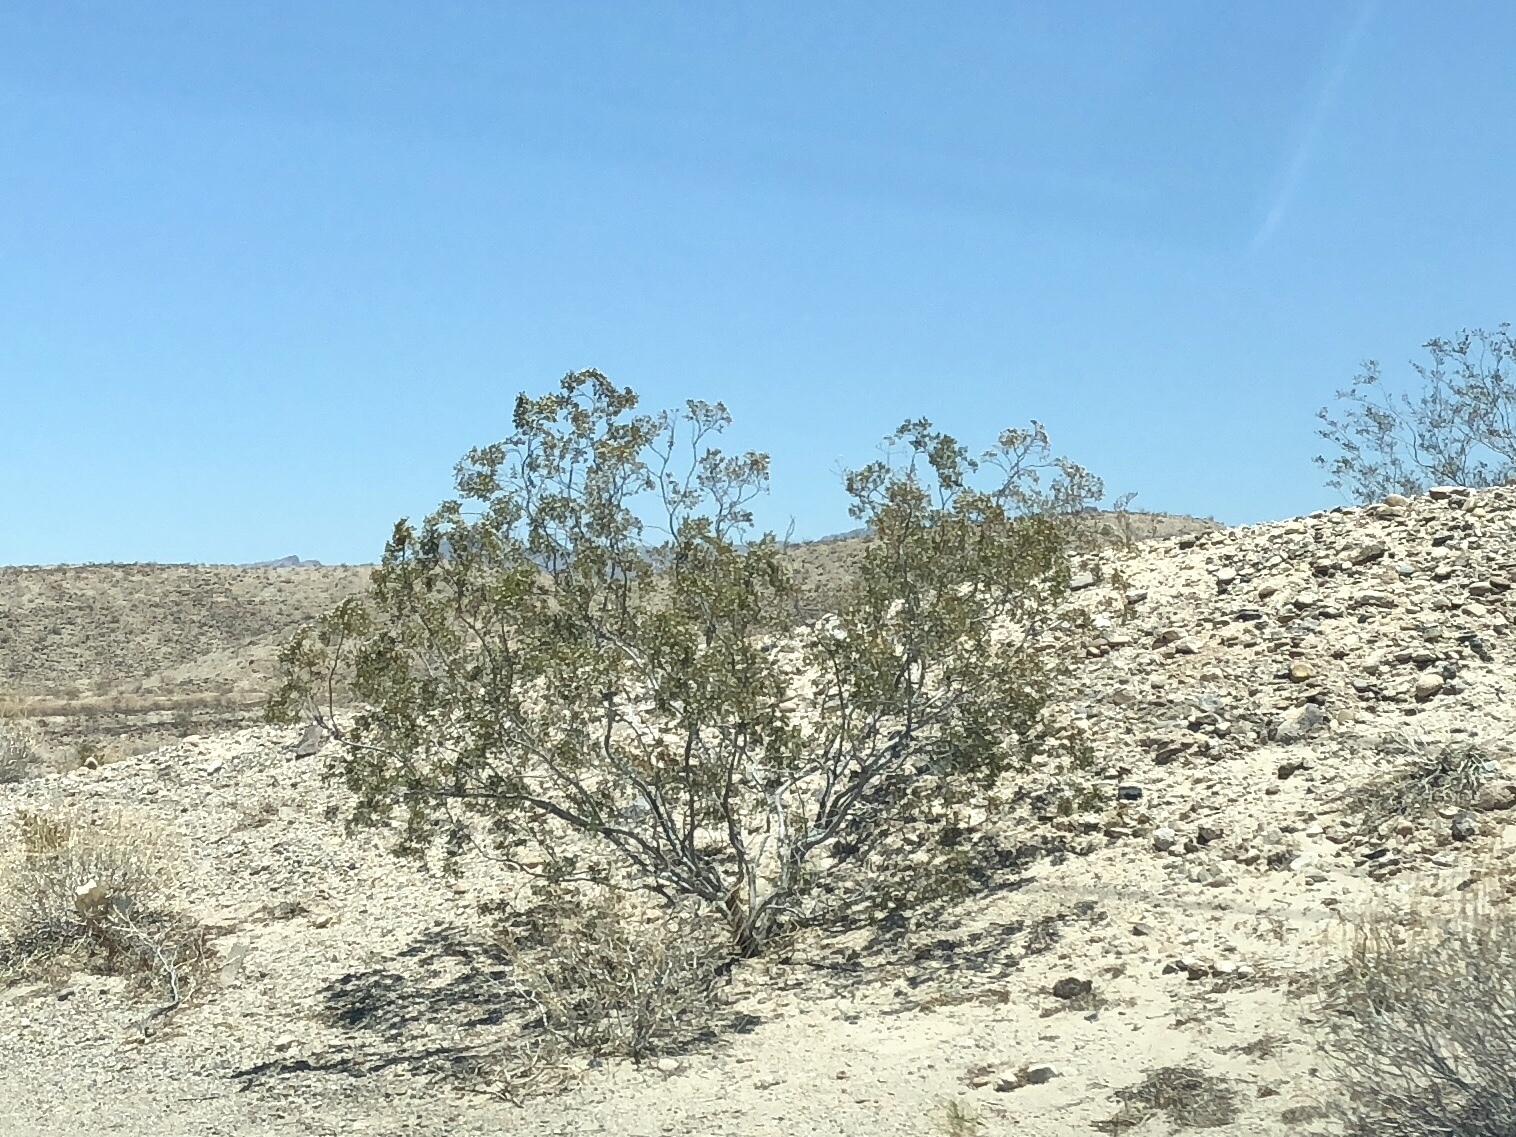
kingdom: Plantae
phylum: Tracheophyta
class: Magnoliopsida
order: Zygophyllales
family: Zygophyllaceae
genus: Larrea
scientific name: Larrea tridentata
